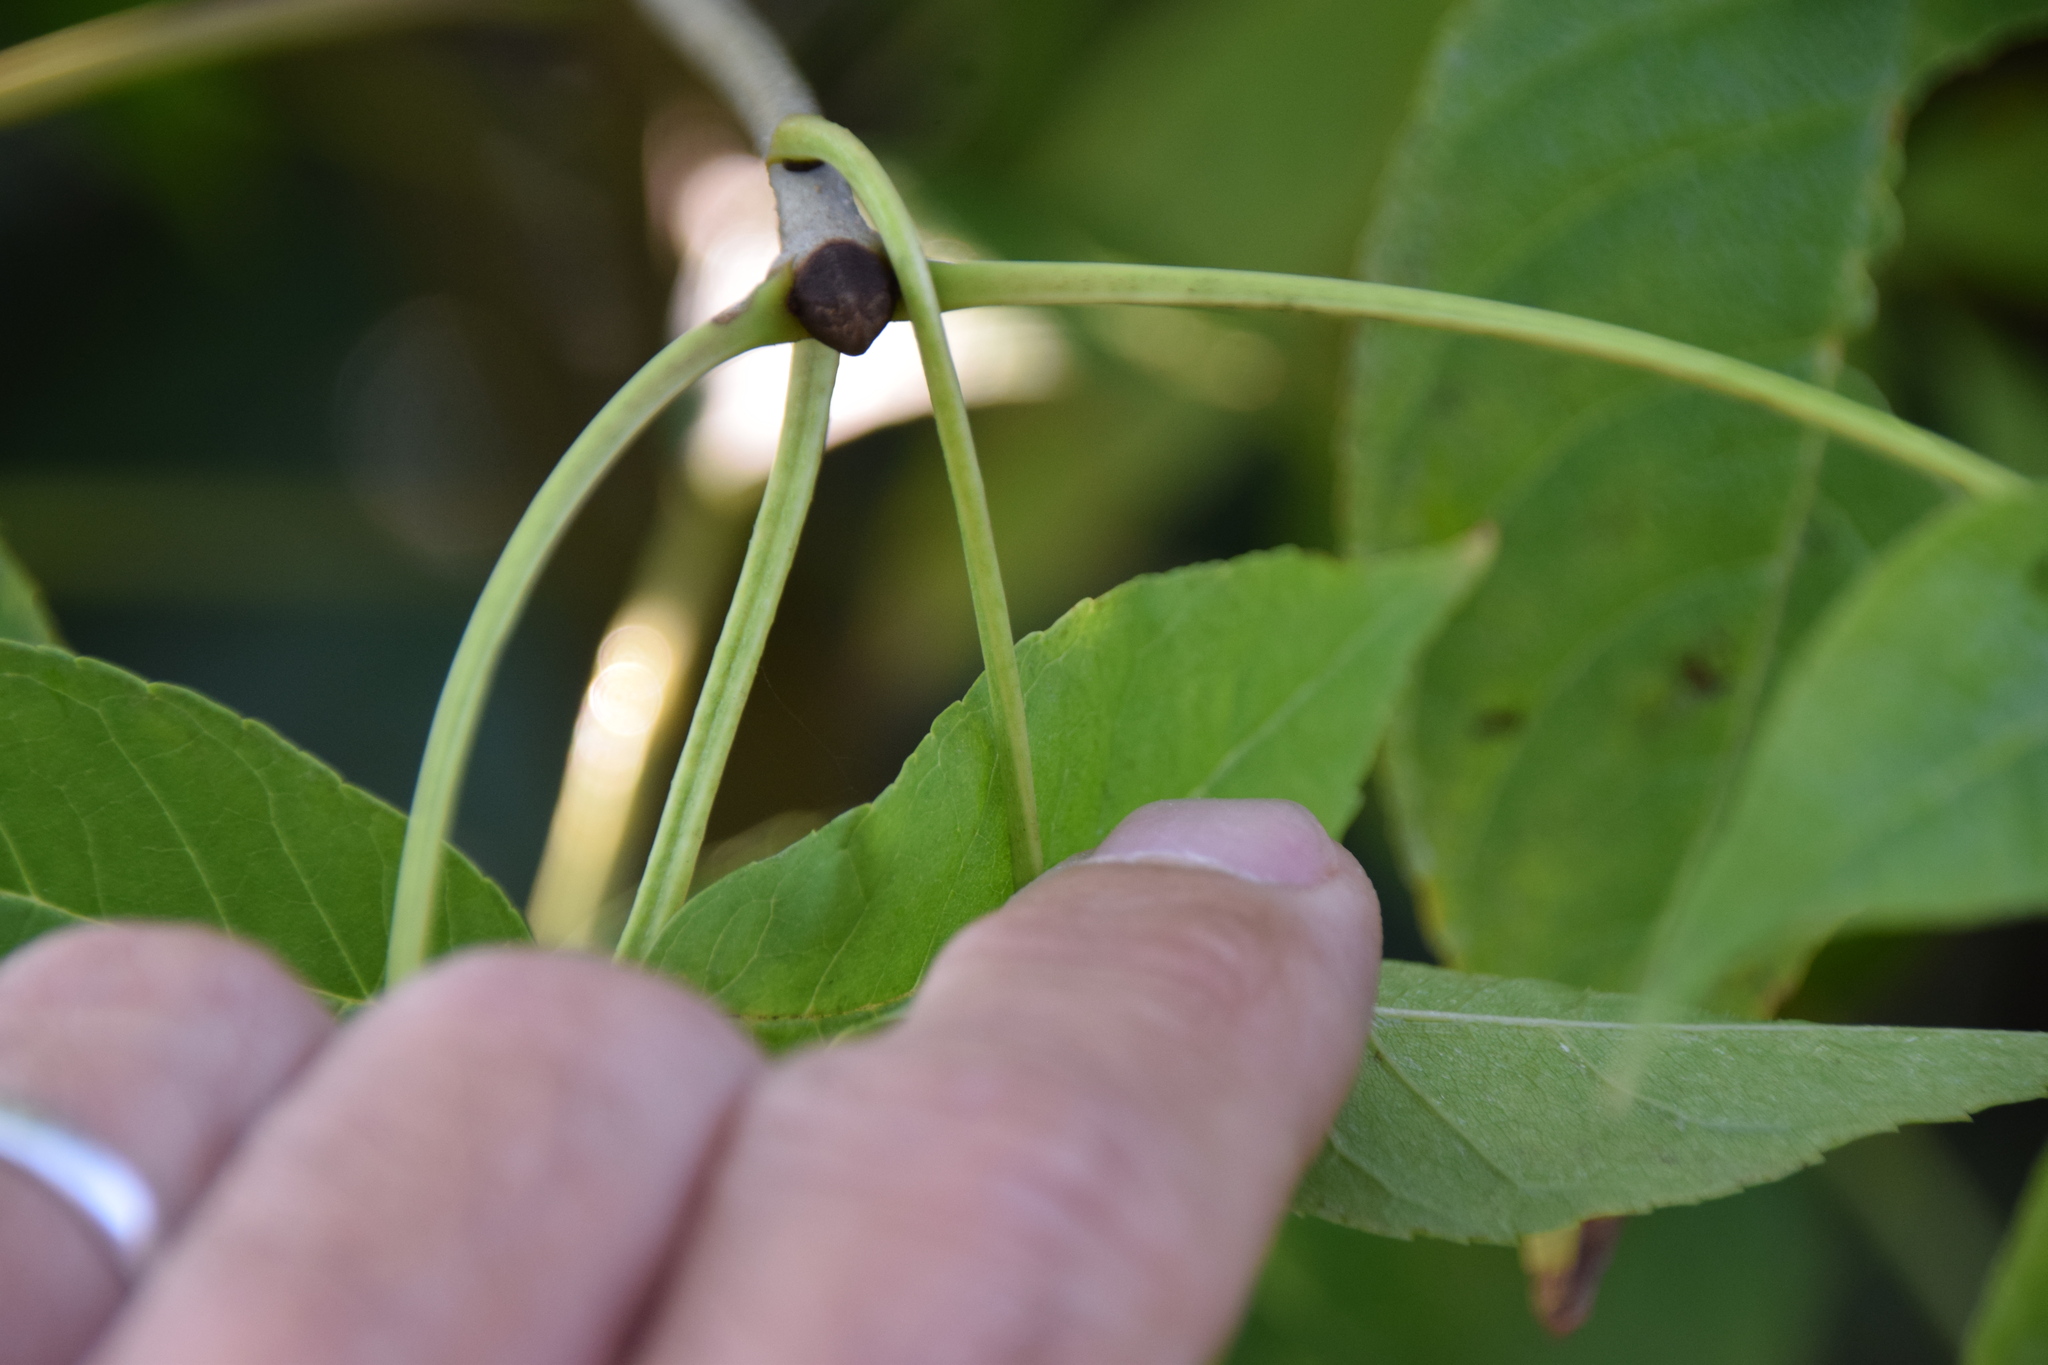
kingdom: Plantae
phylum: Tracheophyta
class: Magnoliopsida
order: Lamiales
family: Oleaceae
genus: Fraxinus
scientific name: Fraxinus nigra
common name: Black ash
